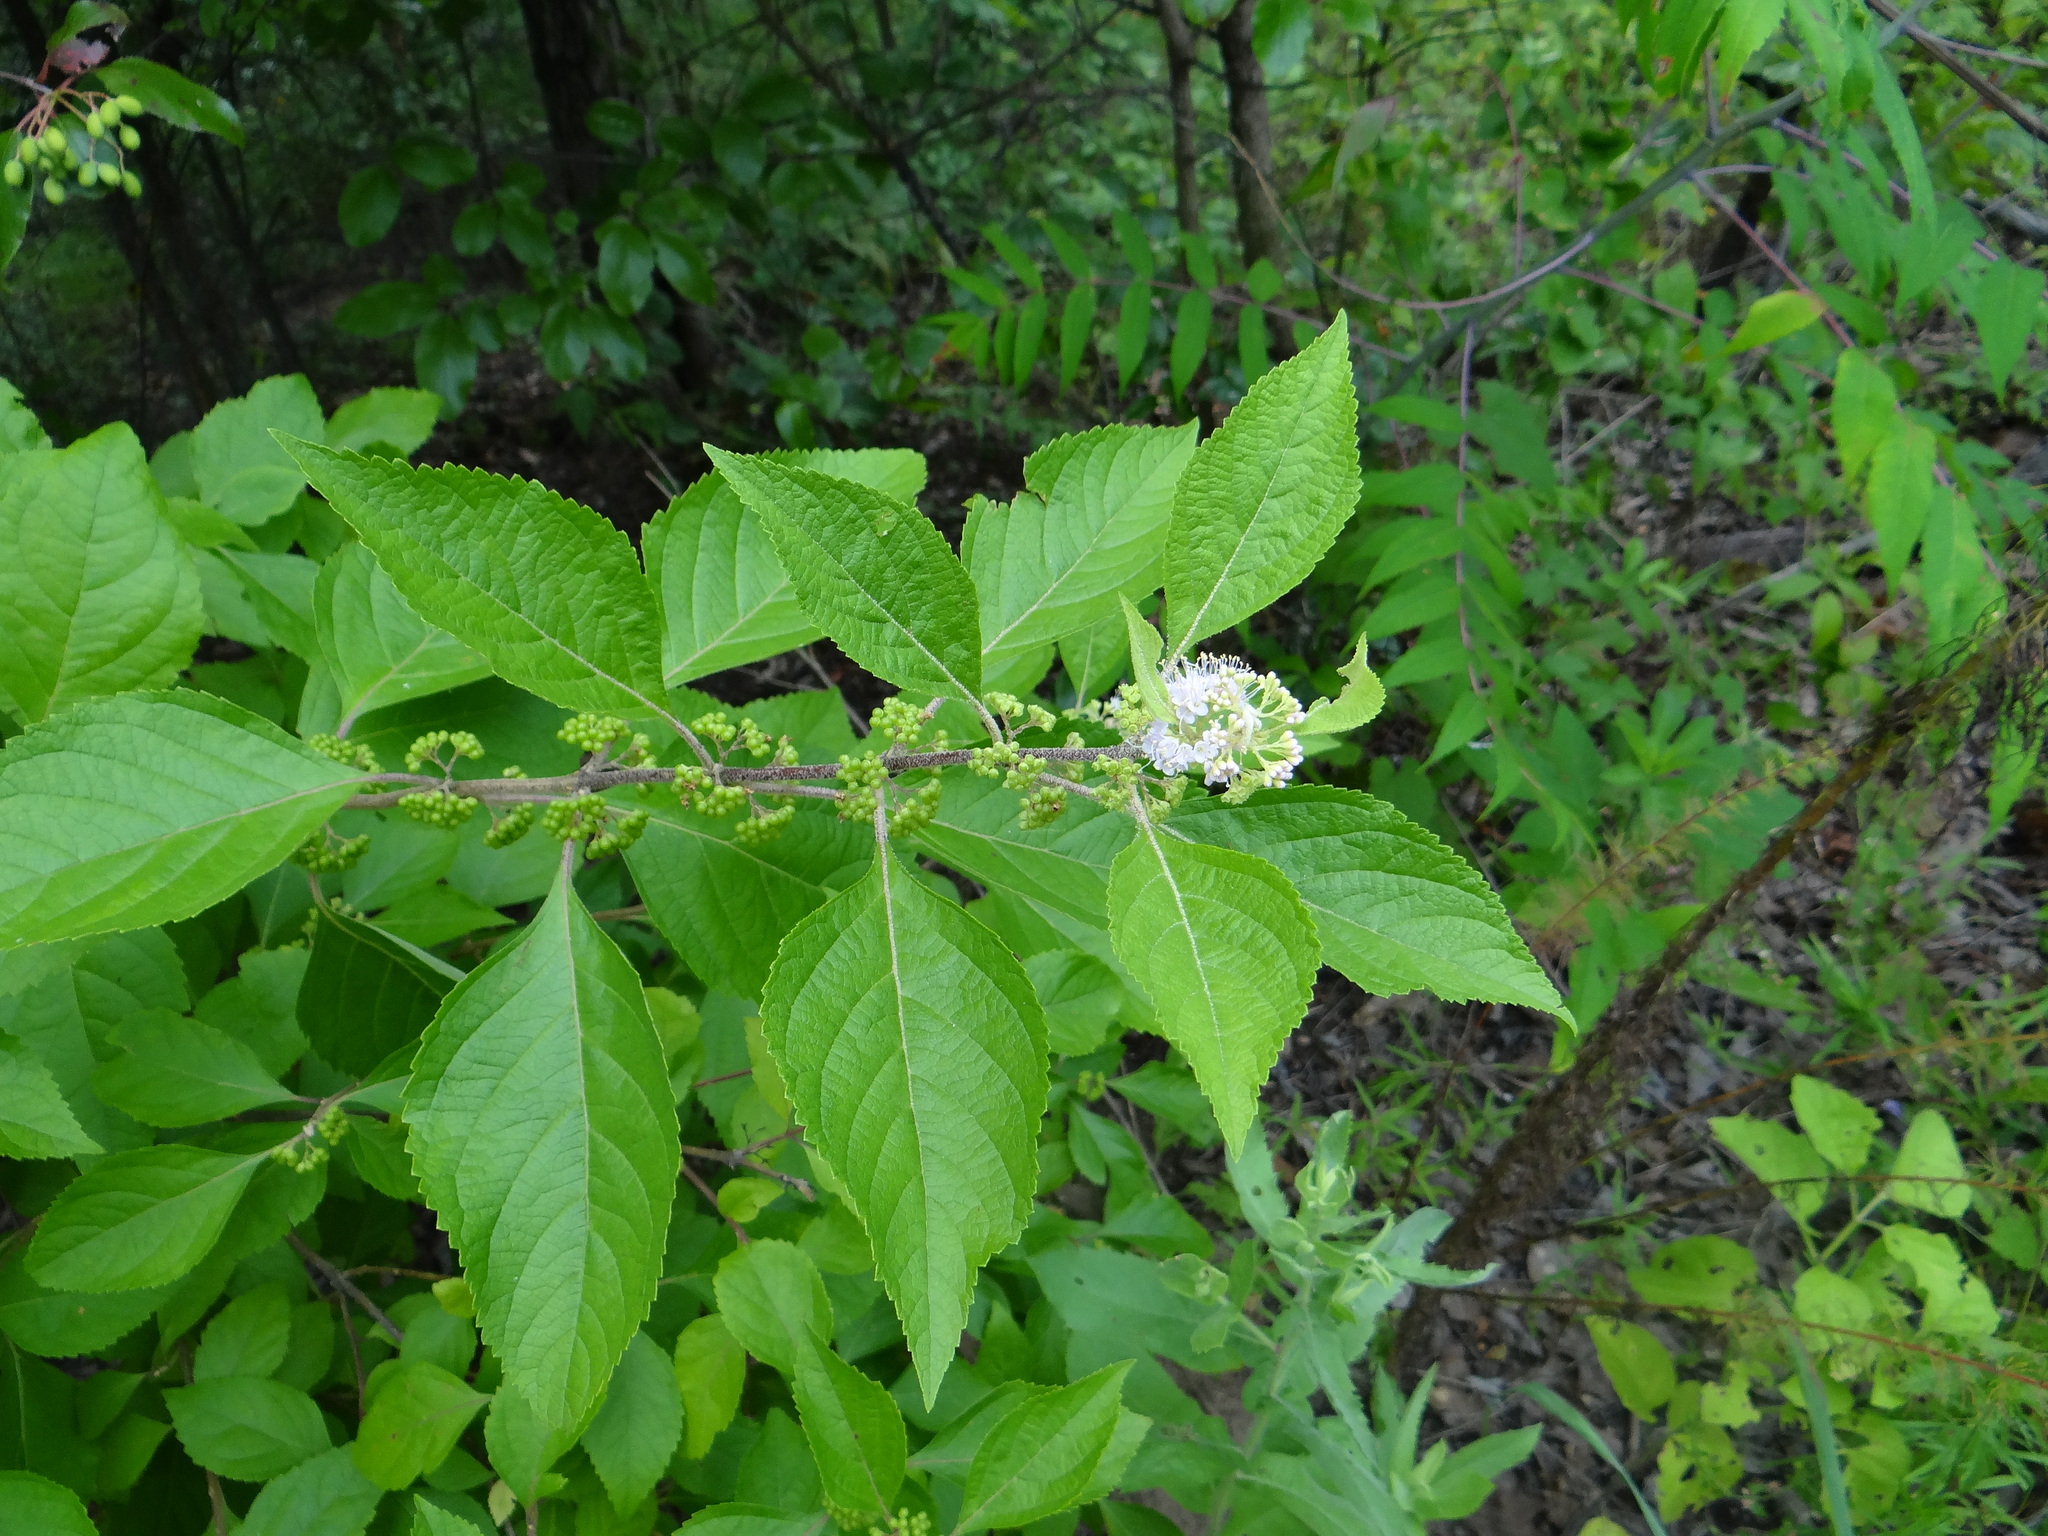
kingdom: Plantae
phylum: Tracheophyta
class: Magnoliopsida
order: Lamiales
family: Lamiaceae
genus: Callicarpa
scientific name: Callicarpa americana
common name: American beautyberry
